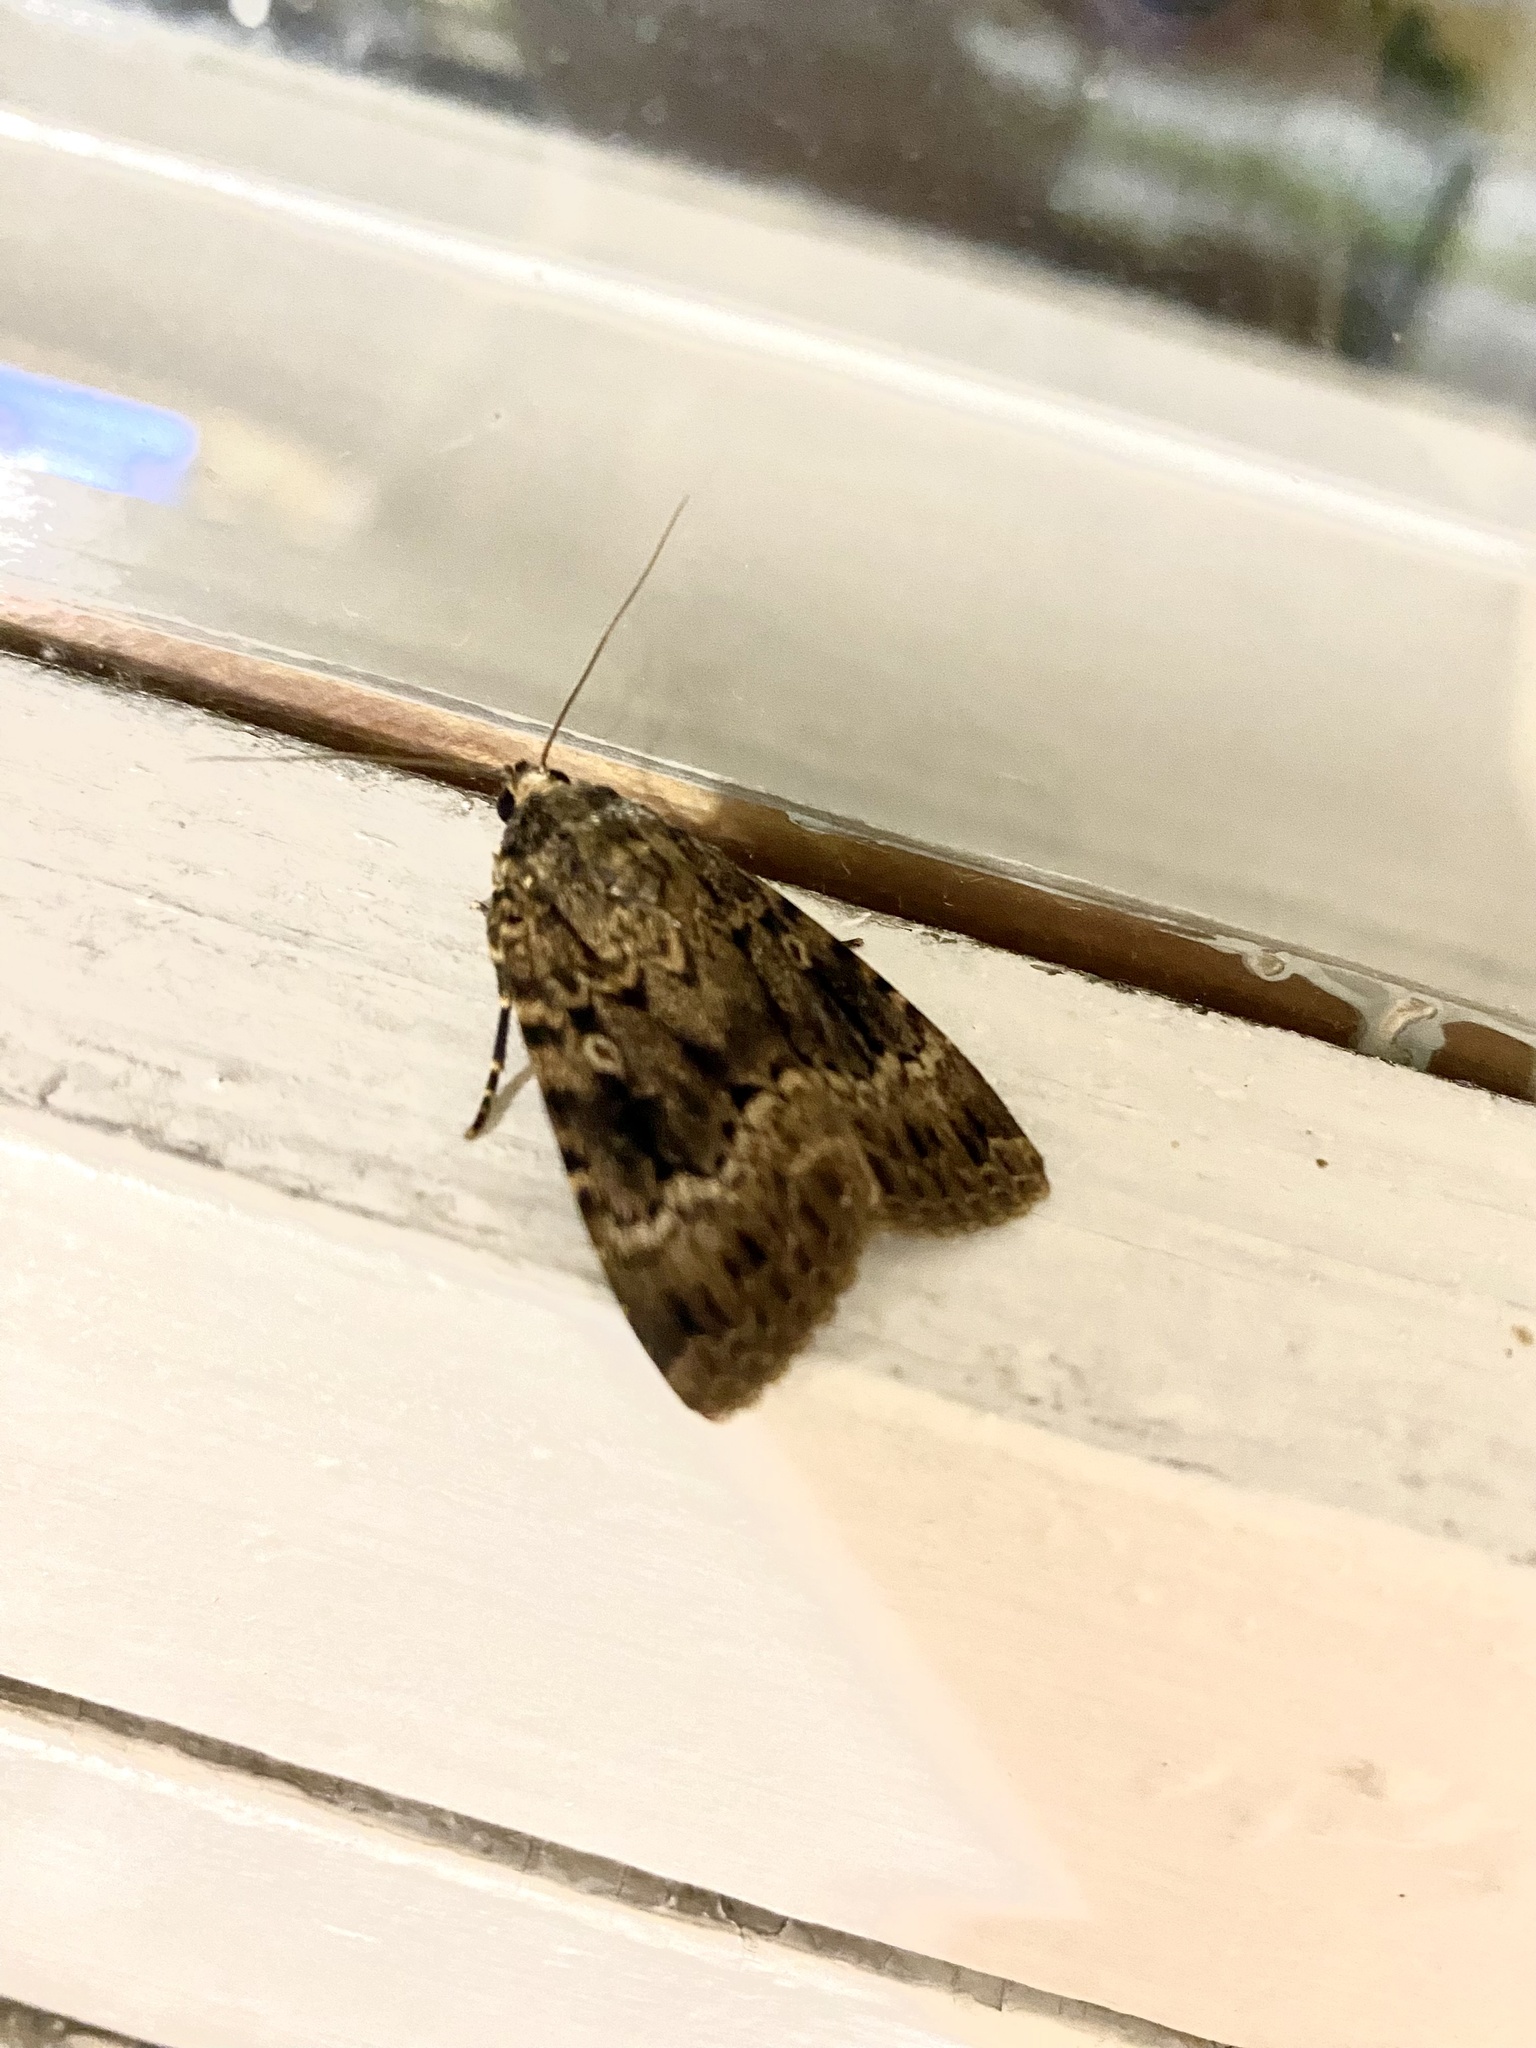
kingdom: Animalia
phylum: Arthropoda
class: Insecta
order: Lepidoptera
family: Noctuidae
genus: Amphipyra
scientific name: Amphipyra berbera
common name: Svensson's copper underwing
